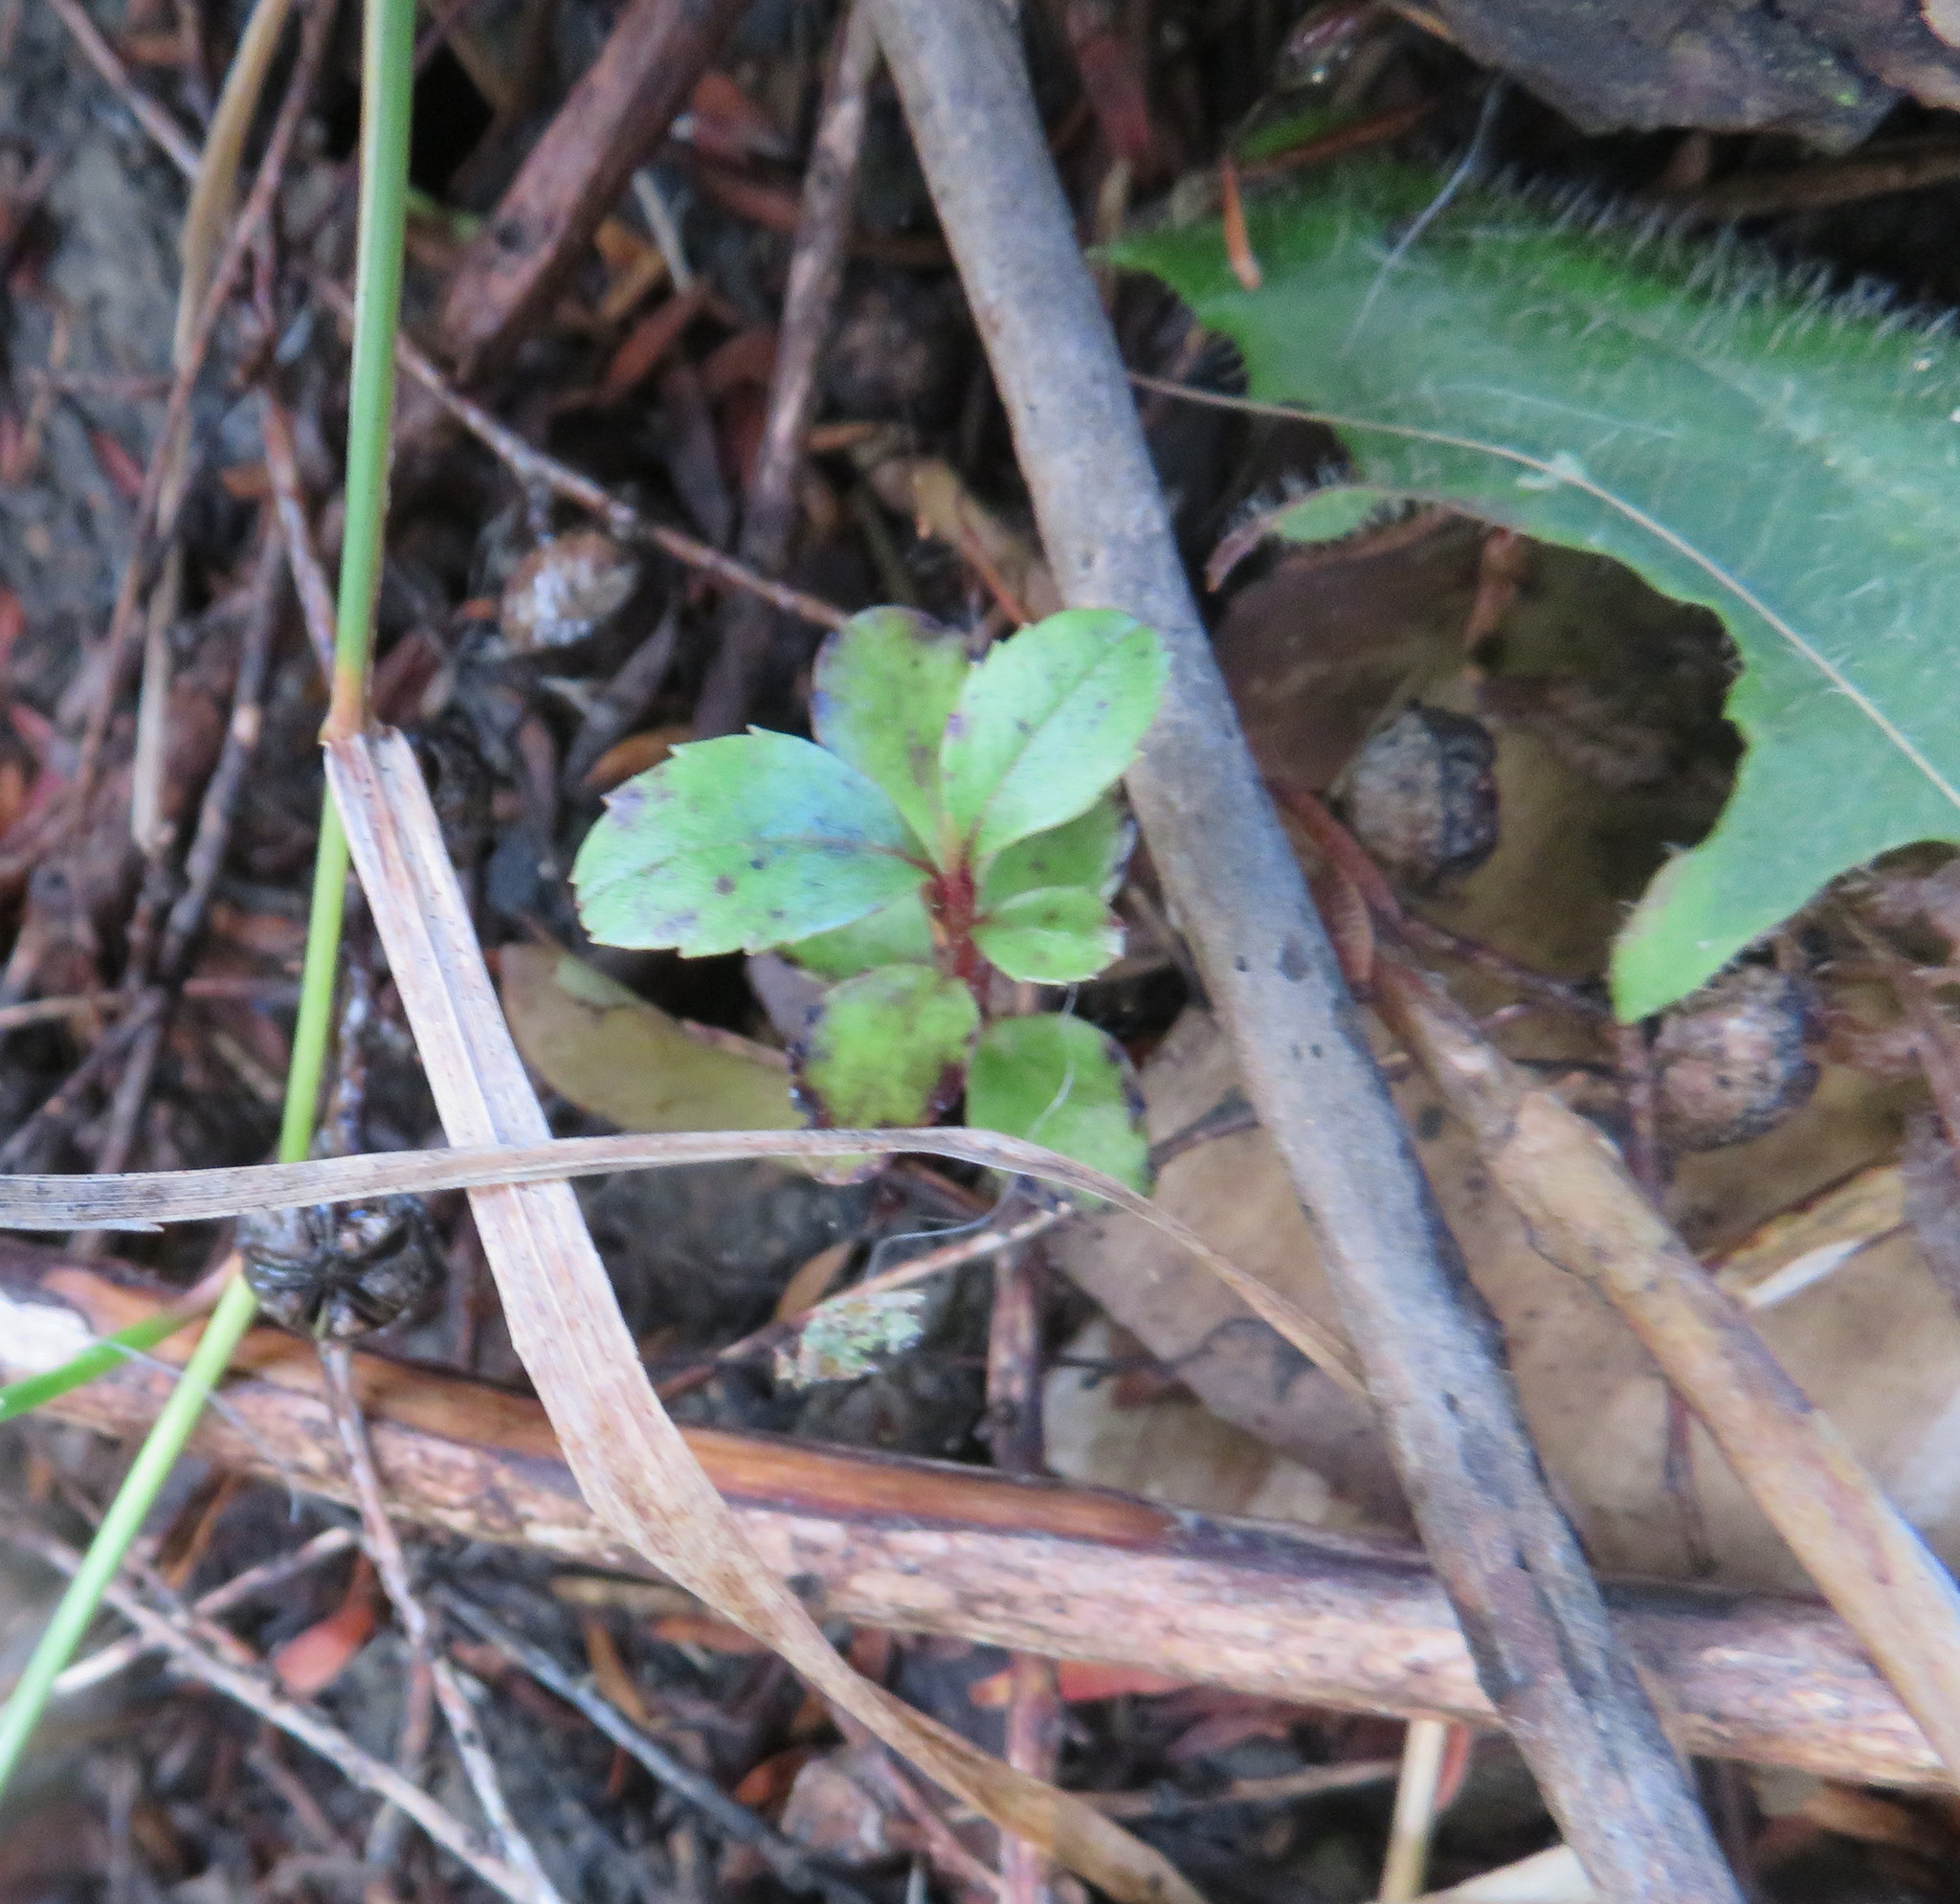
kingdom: Plantae
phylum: Tracheophyta
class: Magnoliopsida
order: Ericales
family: Primulaceae
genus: Myrsine
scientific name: Myrsine australis
